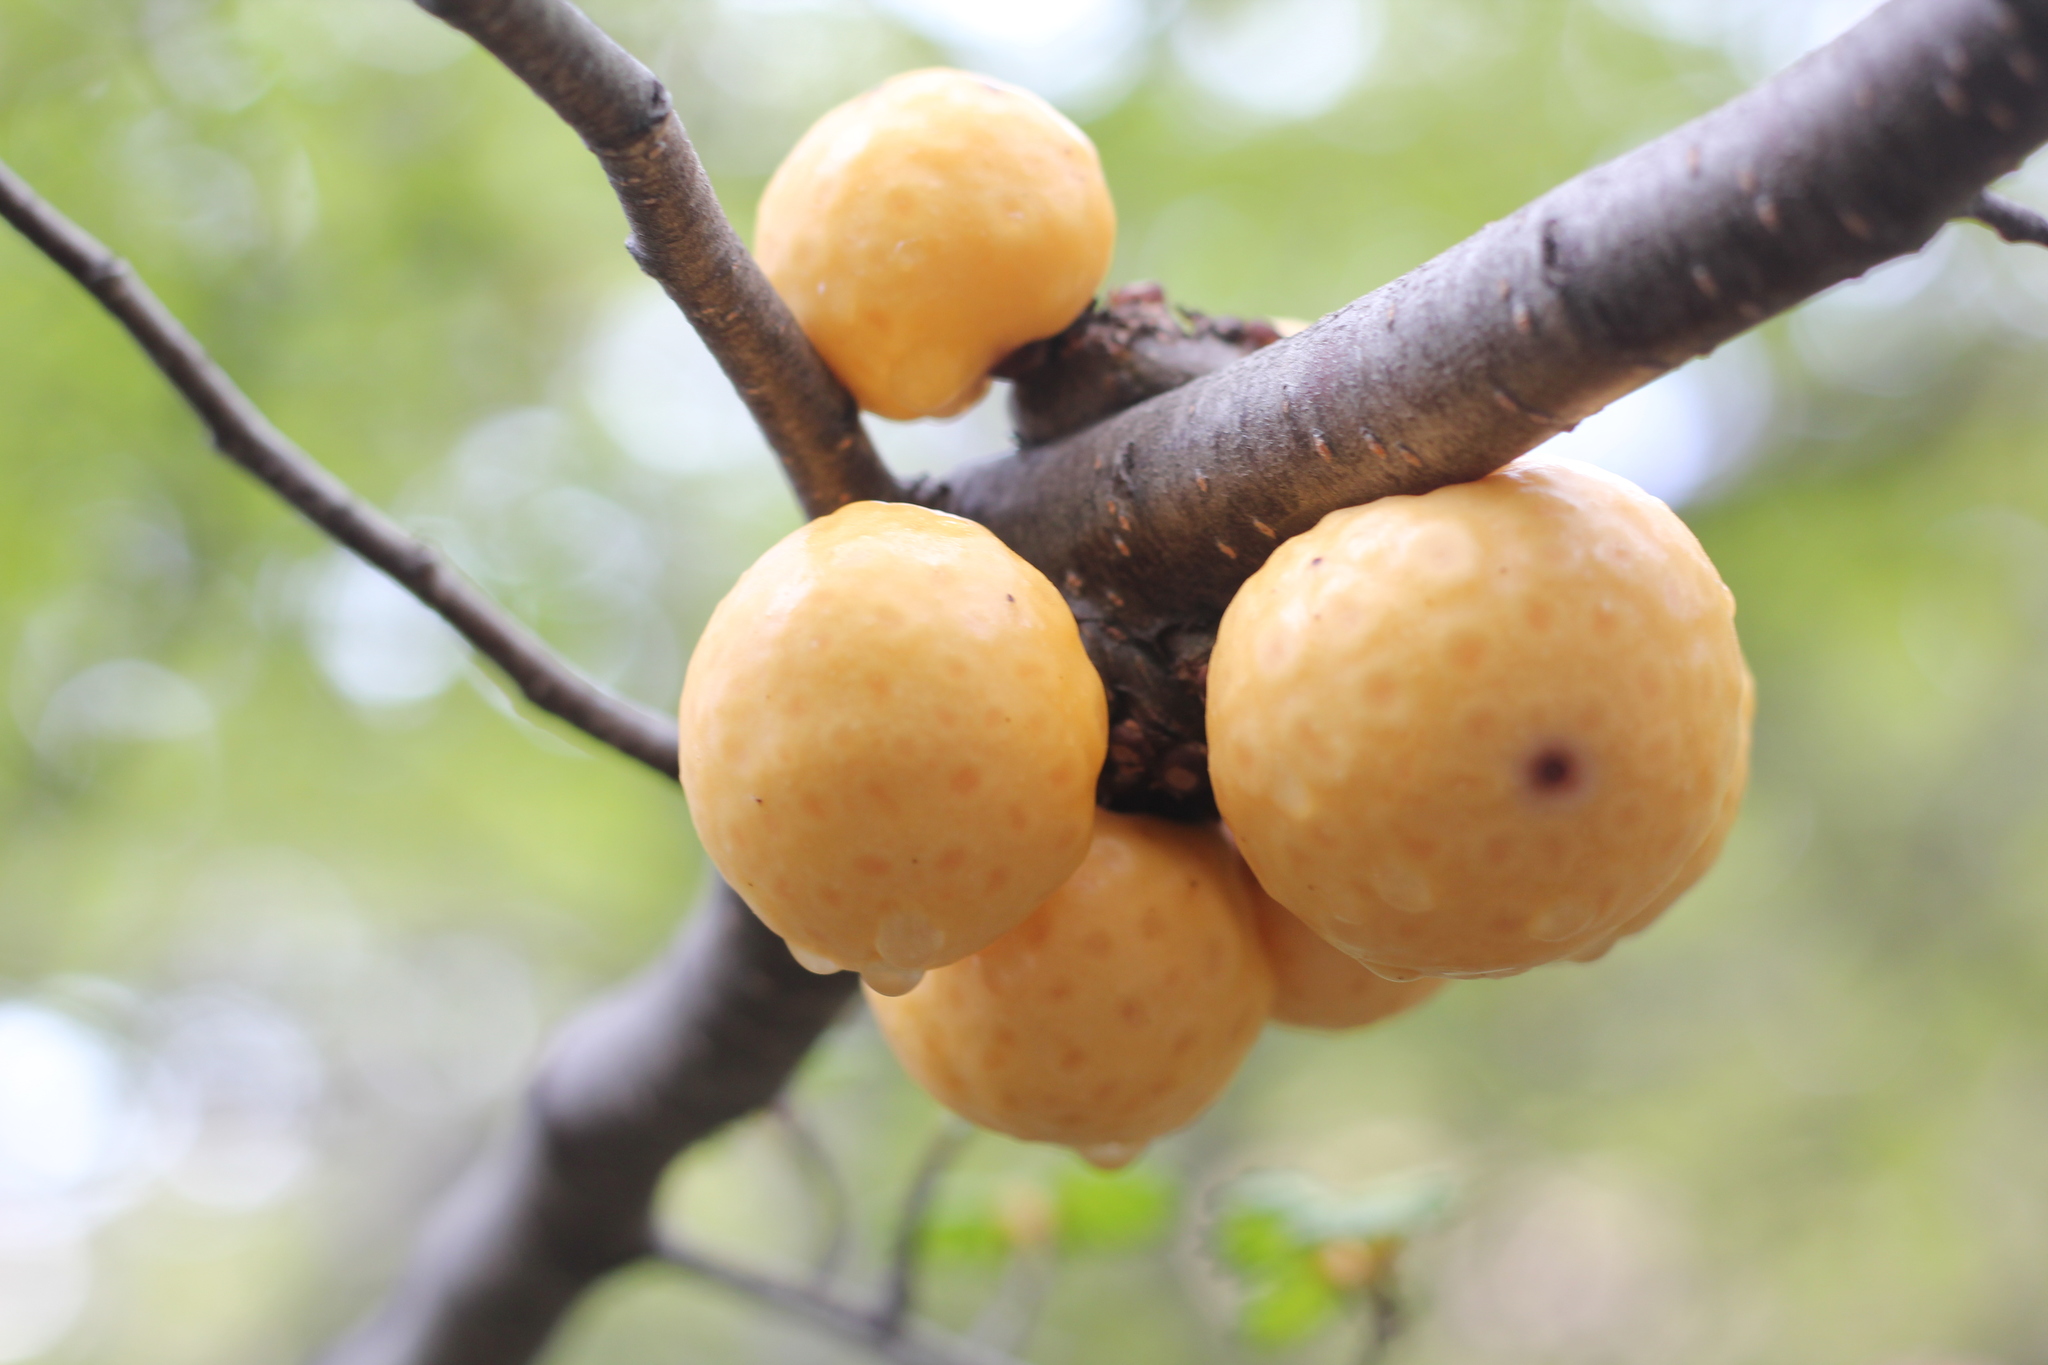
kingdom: Fungi
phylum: Ascomycota
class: Leotiomycetes
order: Cyttariales
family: Cyttariaceae
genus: Cyttaria
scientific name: Cyttaria hariotii
